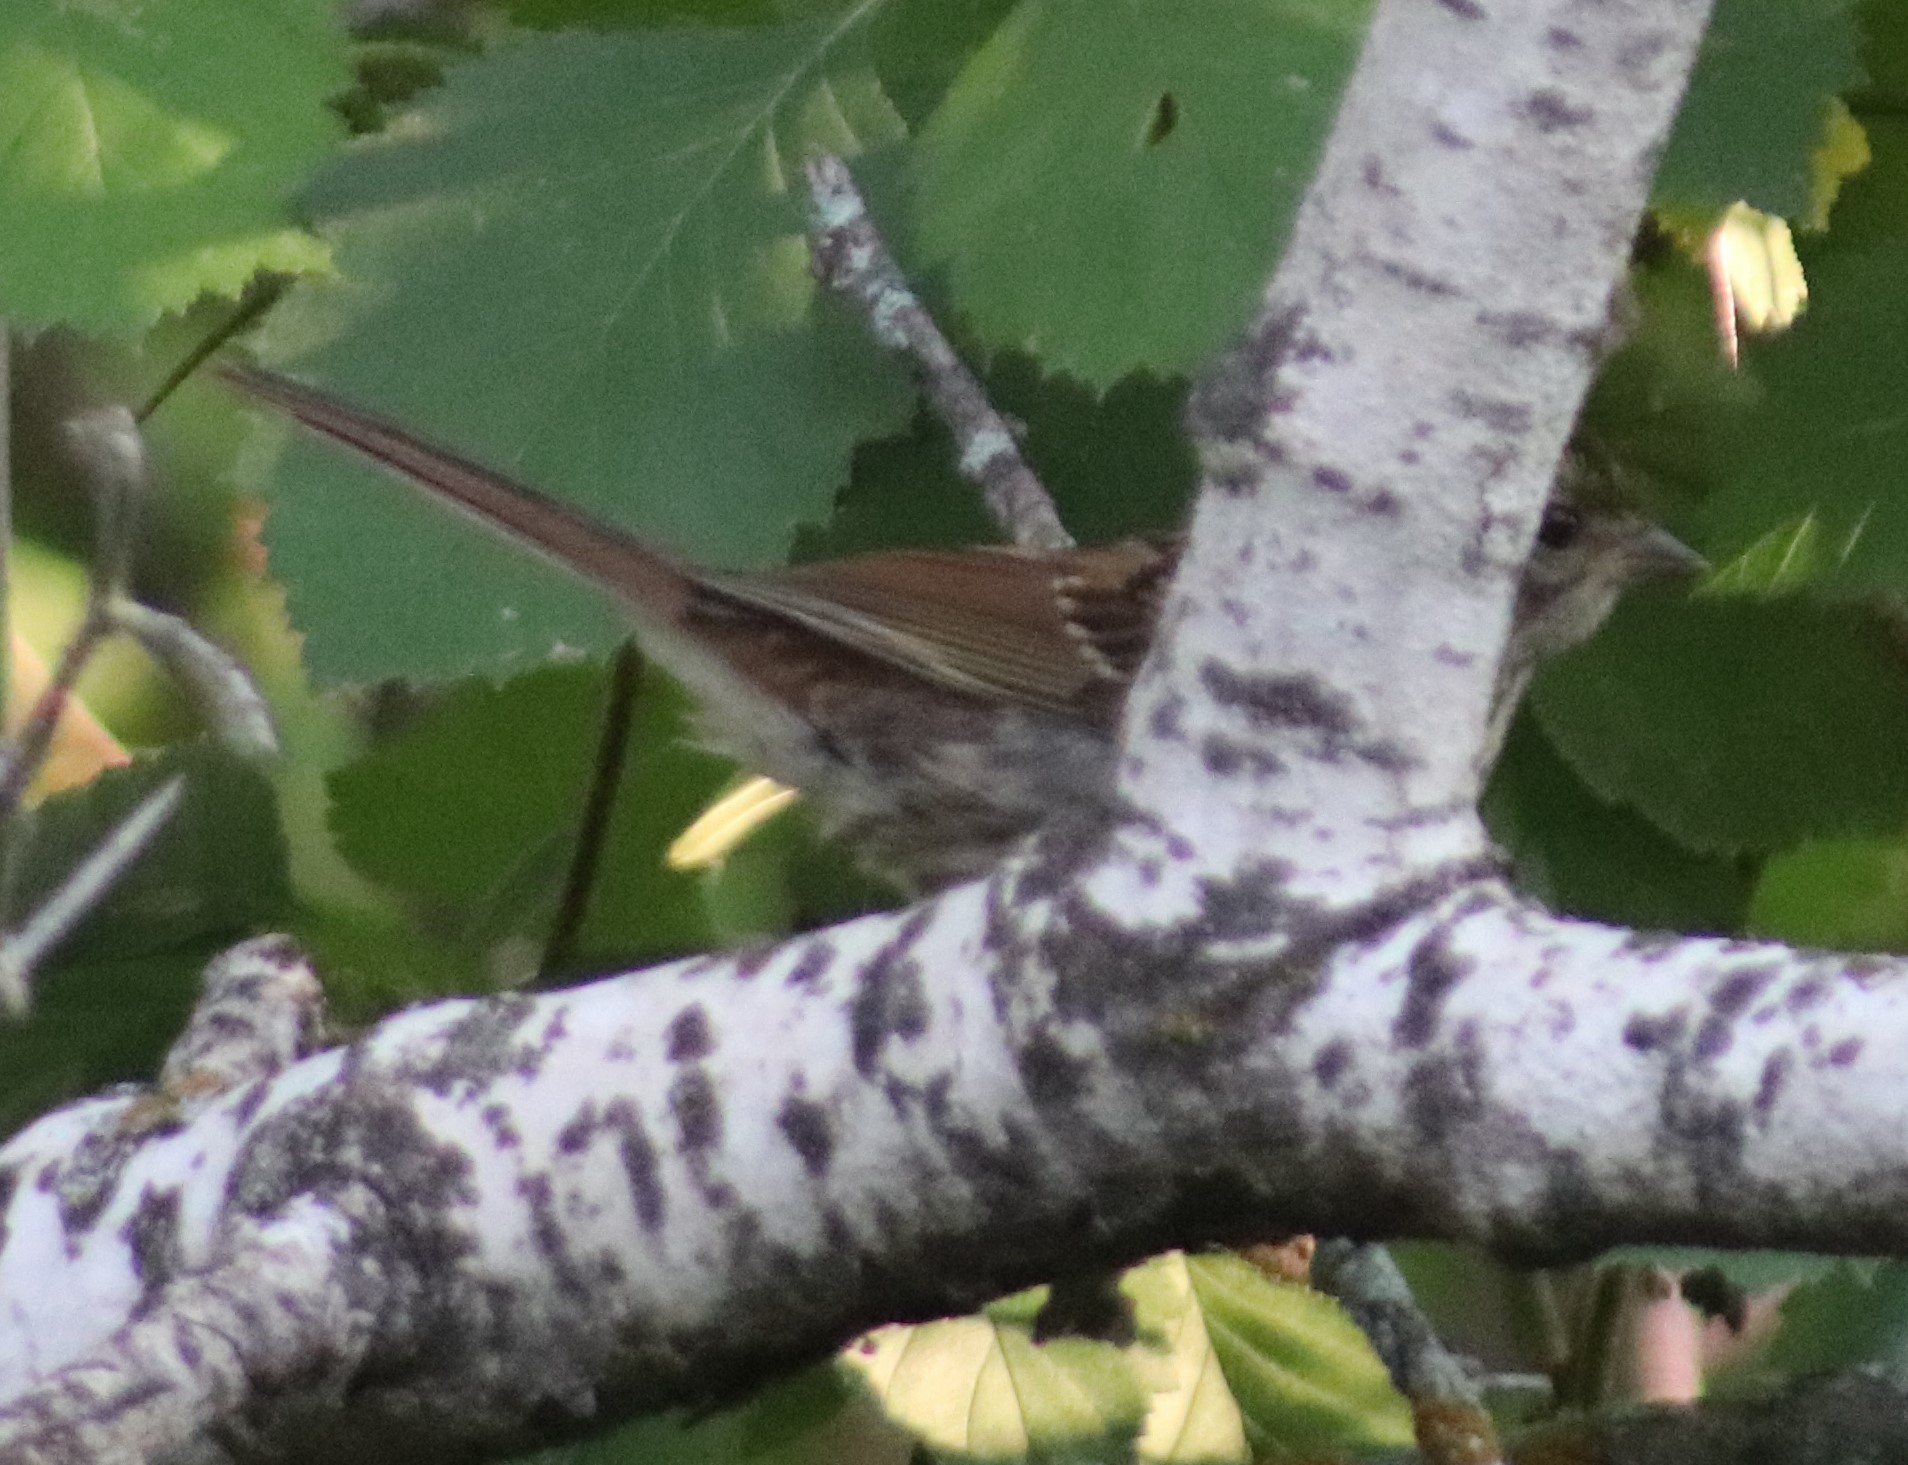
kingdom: Animalia
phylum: Chordata
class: Aves
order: Passeriformes
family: Passerellidae
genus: Zonotrichia
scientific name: Zonotrichia albicollis
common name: White-throated sparrow
